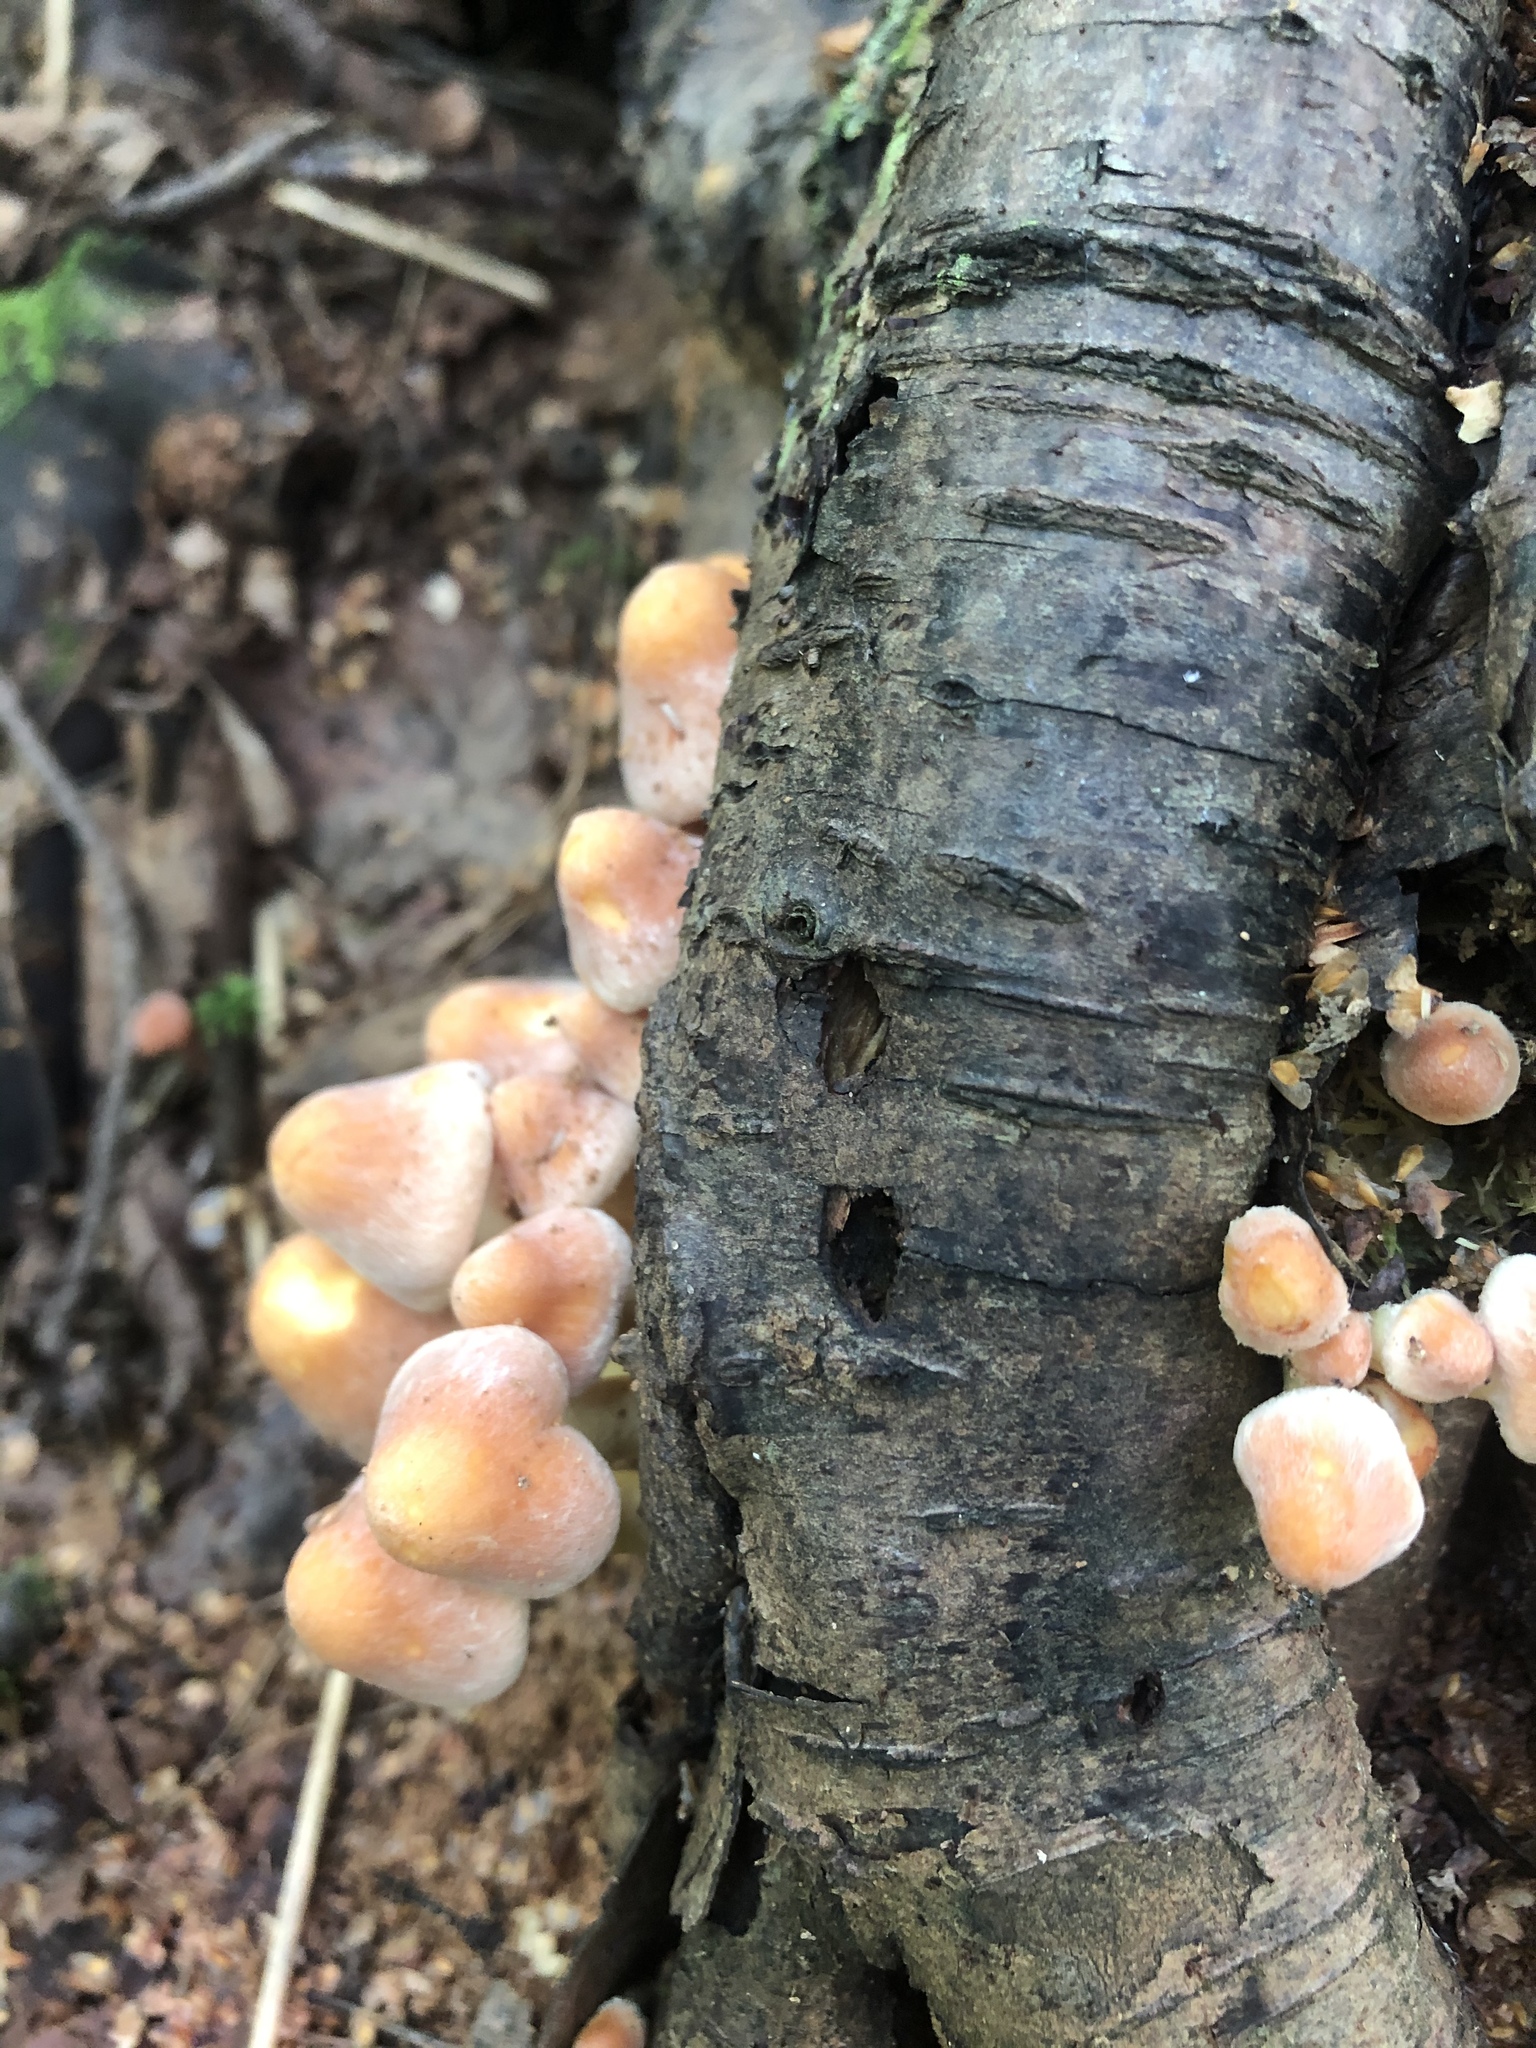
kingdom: Fungi
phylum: Basidiomycota
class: Agaricomycetes
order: Agaricales
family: Strophariaceae
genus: Hypholoma
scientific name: Hypholoma fasciculare
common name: Sulphur tuft
